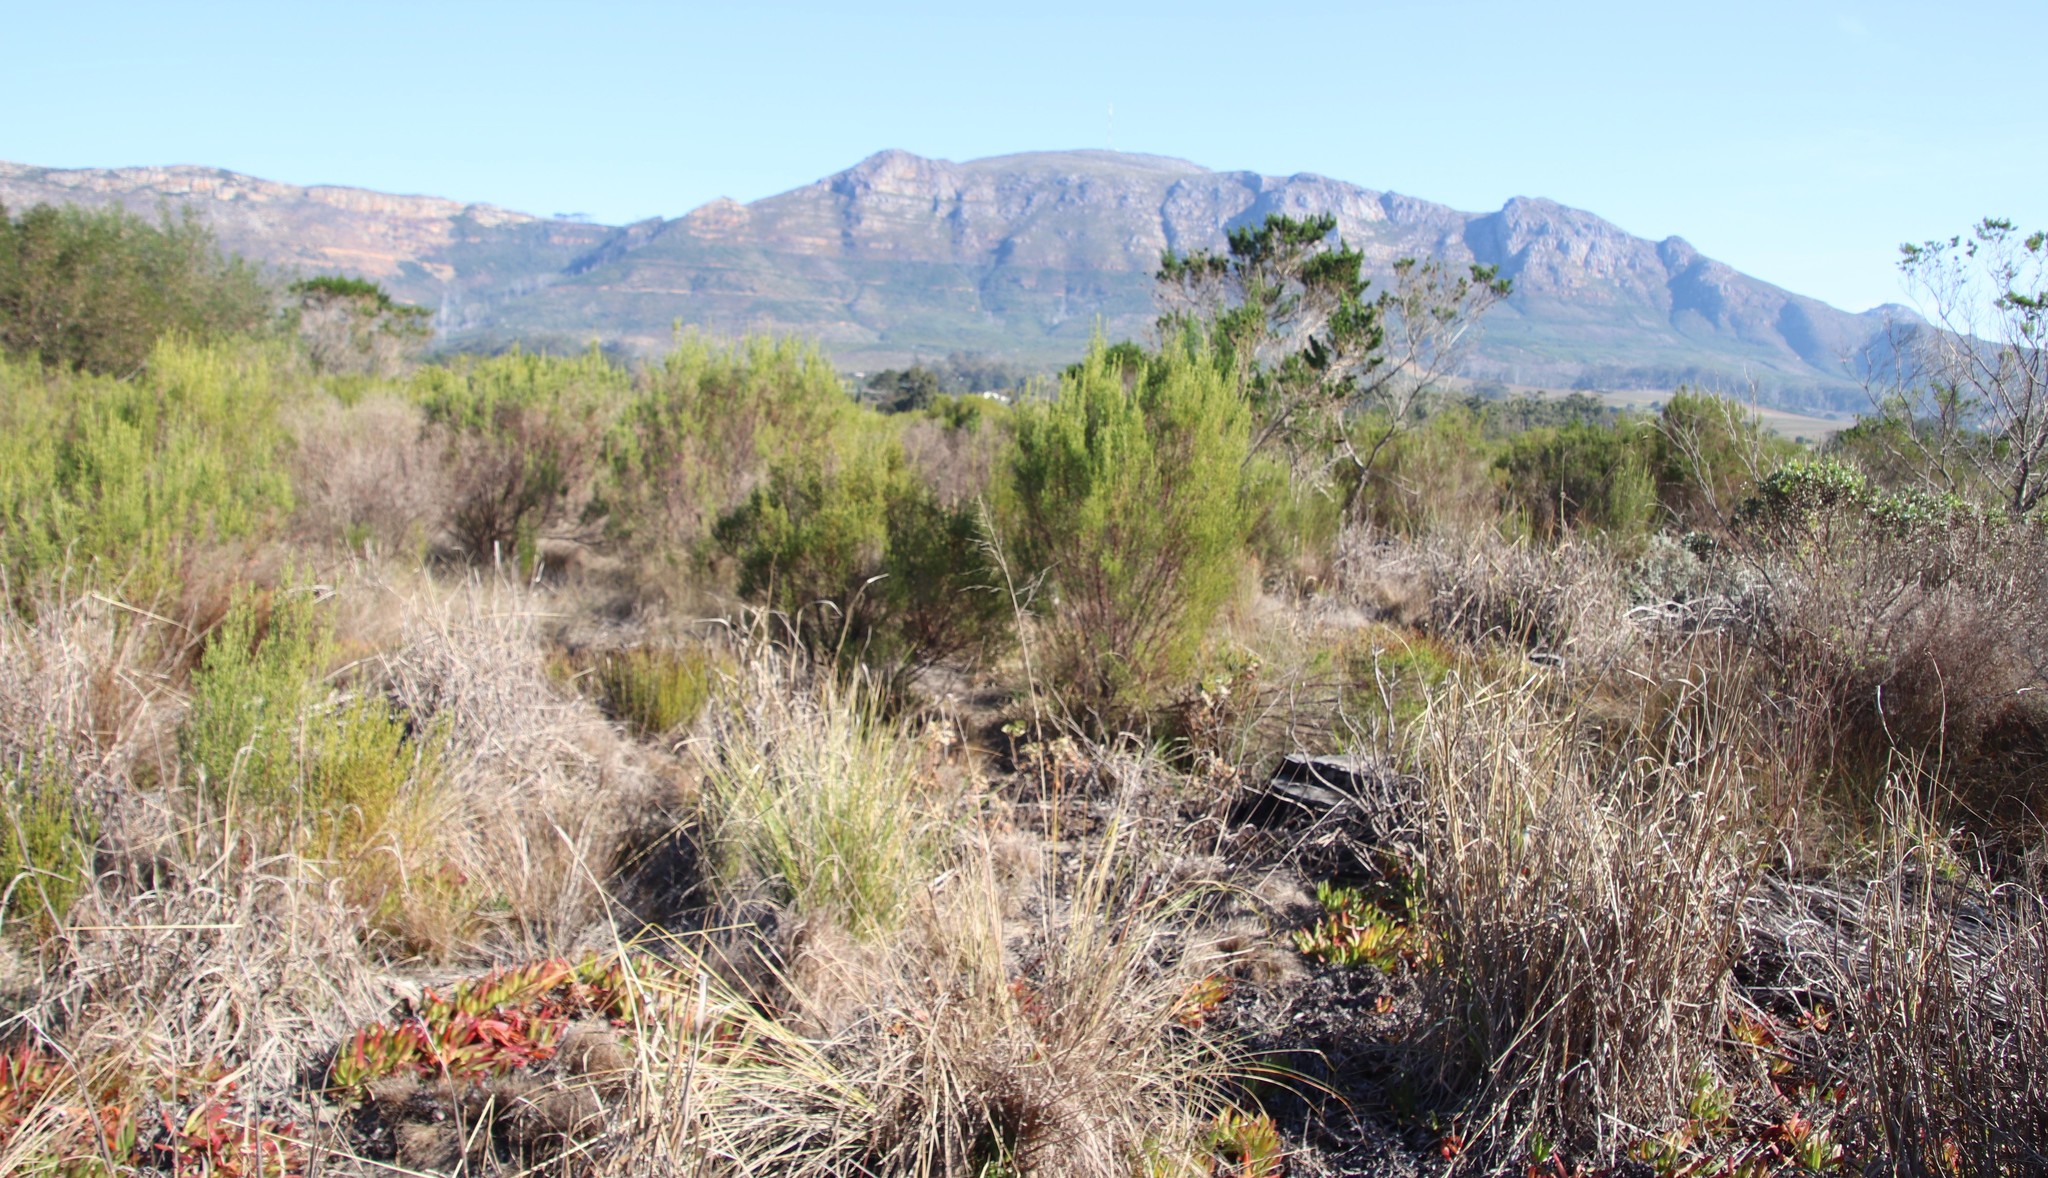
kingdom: Plantae
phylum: Tracheophyta
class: Liliopsida
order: Poales
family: Poaceae
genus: Eragrostis
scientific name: Eragrostis curvula
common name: African love-grass
